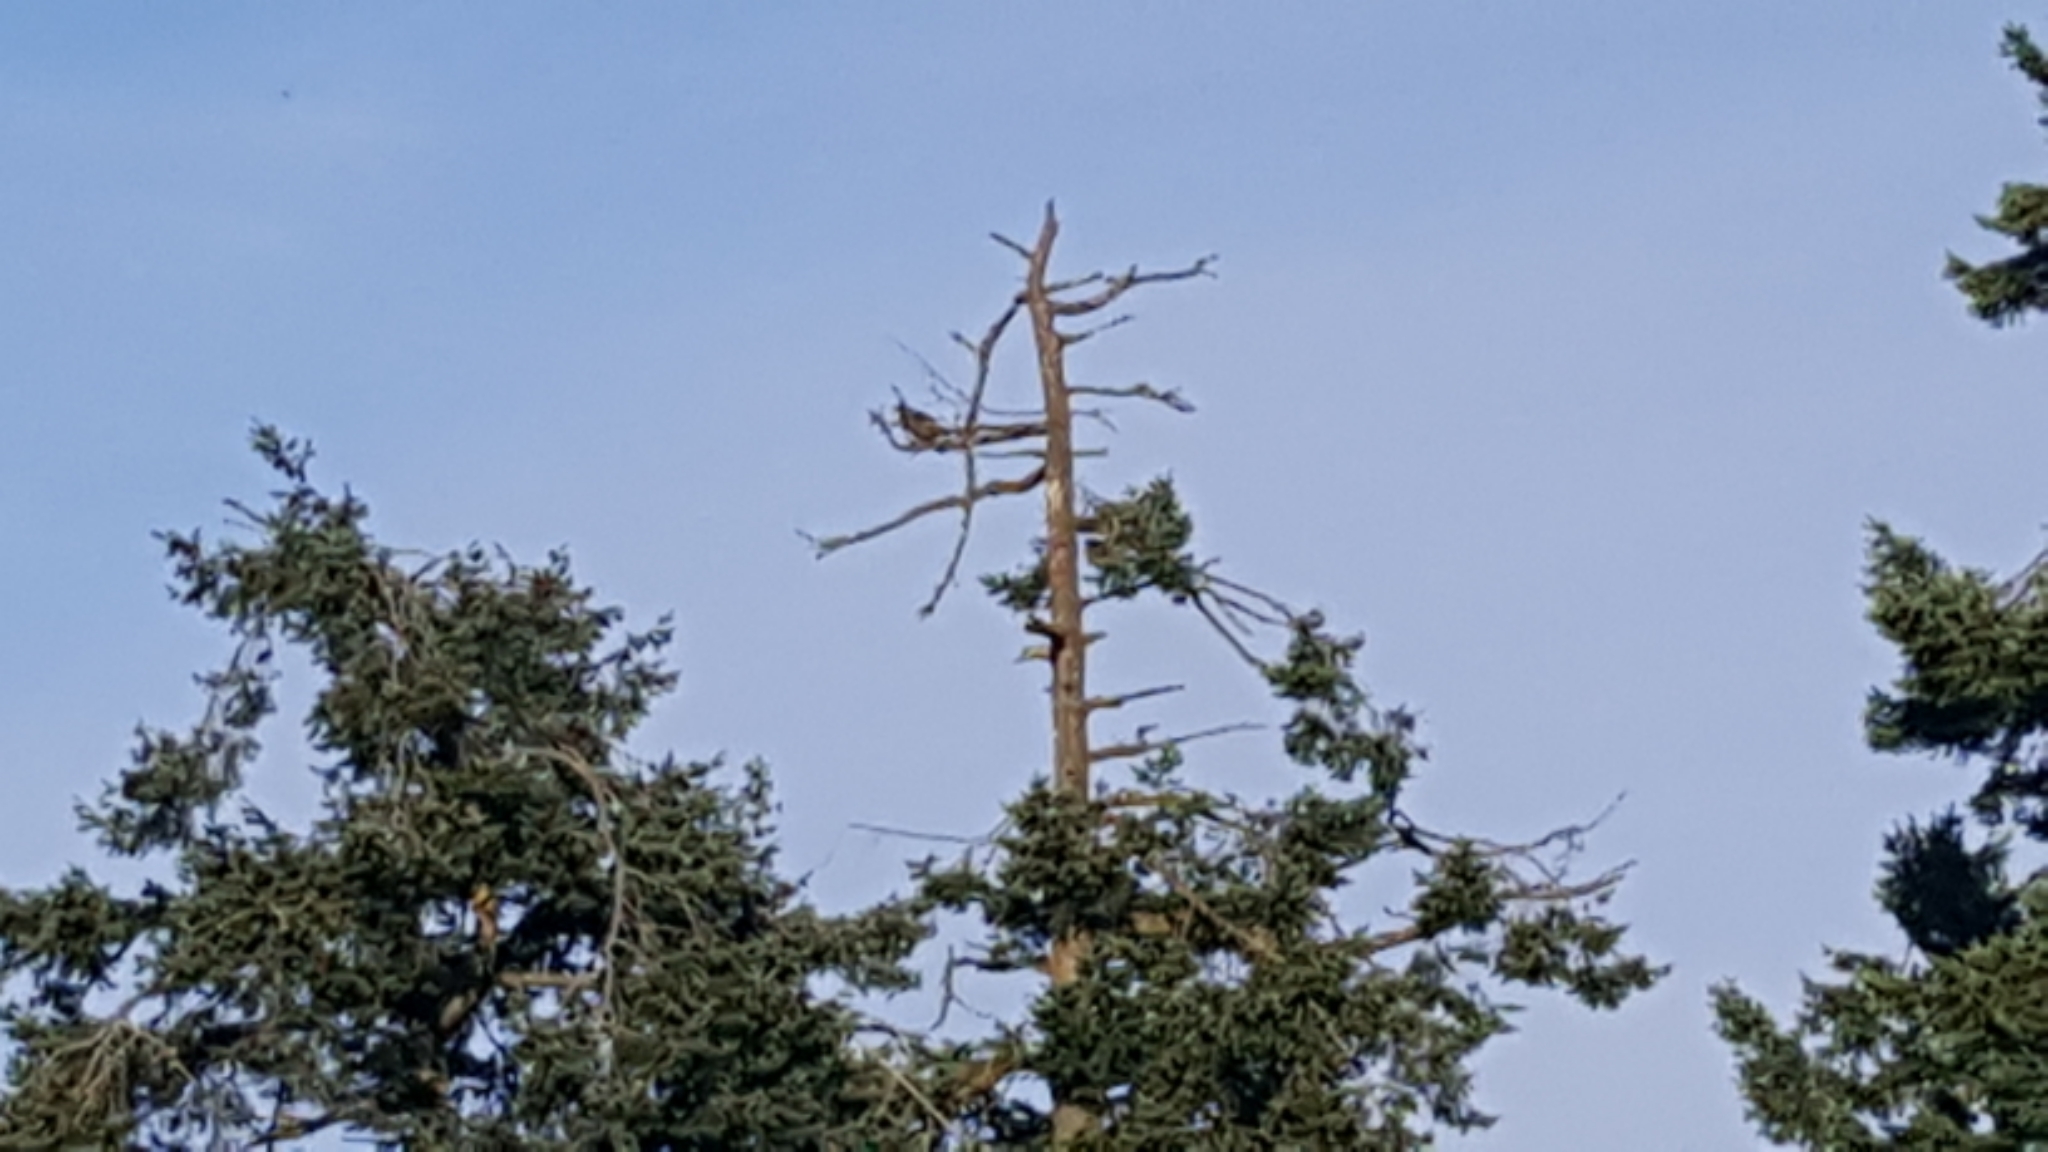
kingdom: Animalia
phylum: Chordata
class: Aves
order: Accipitriformes
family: Pandionidae
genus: Pandion
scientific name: Pandion haliaetus
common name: Osprey
